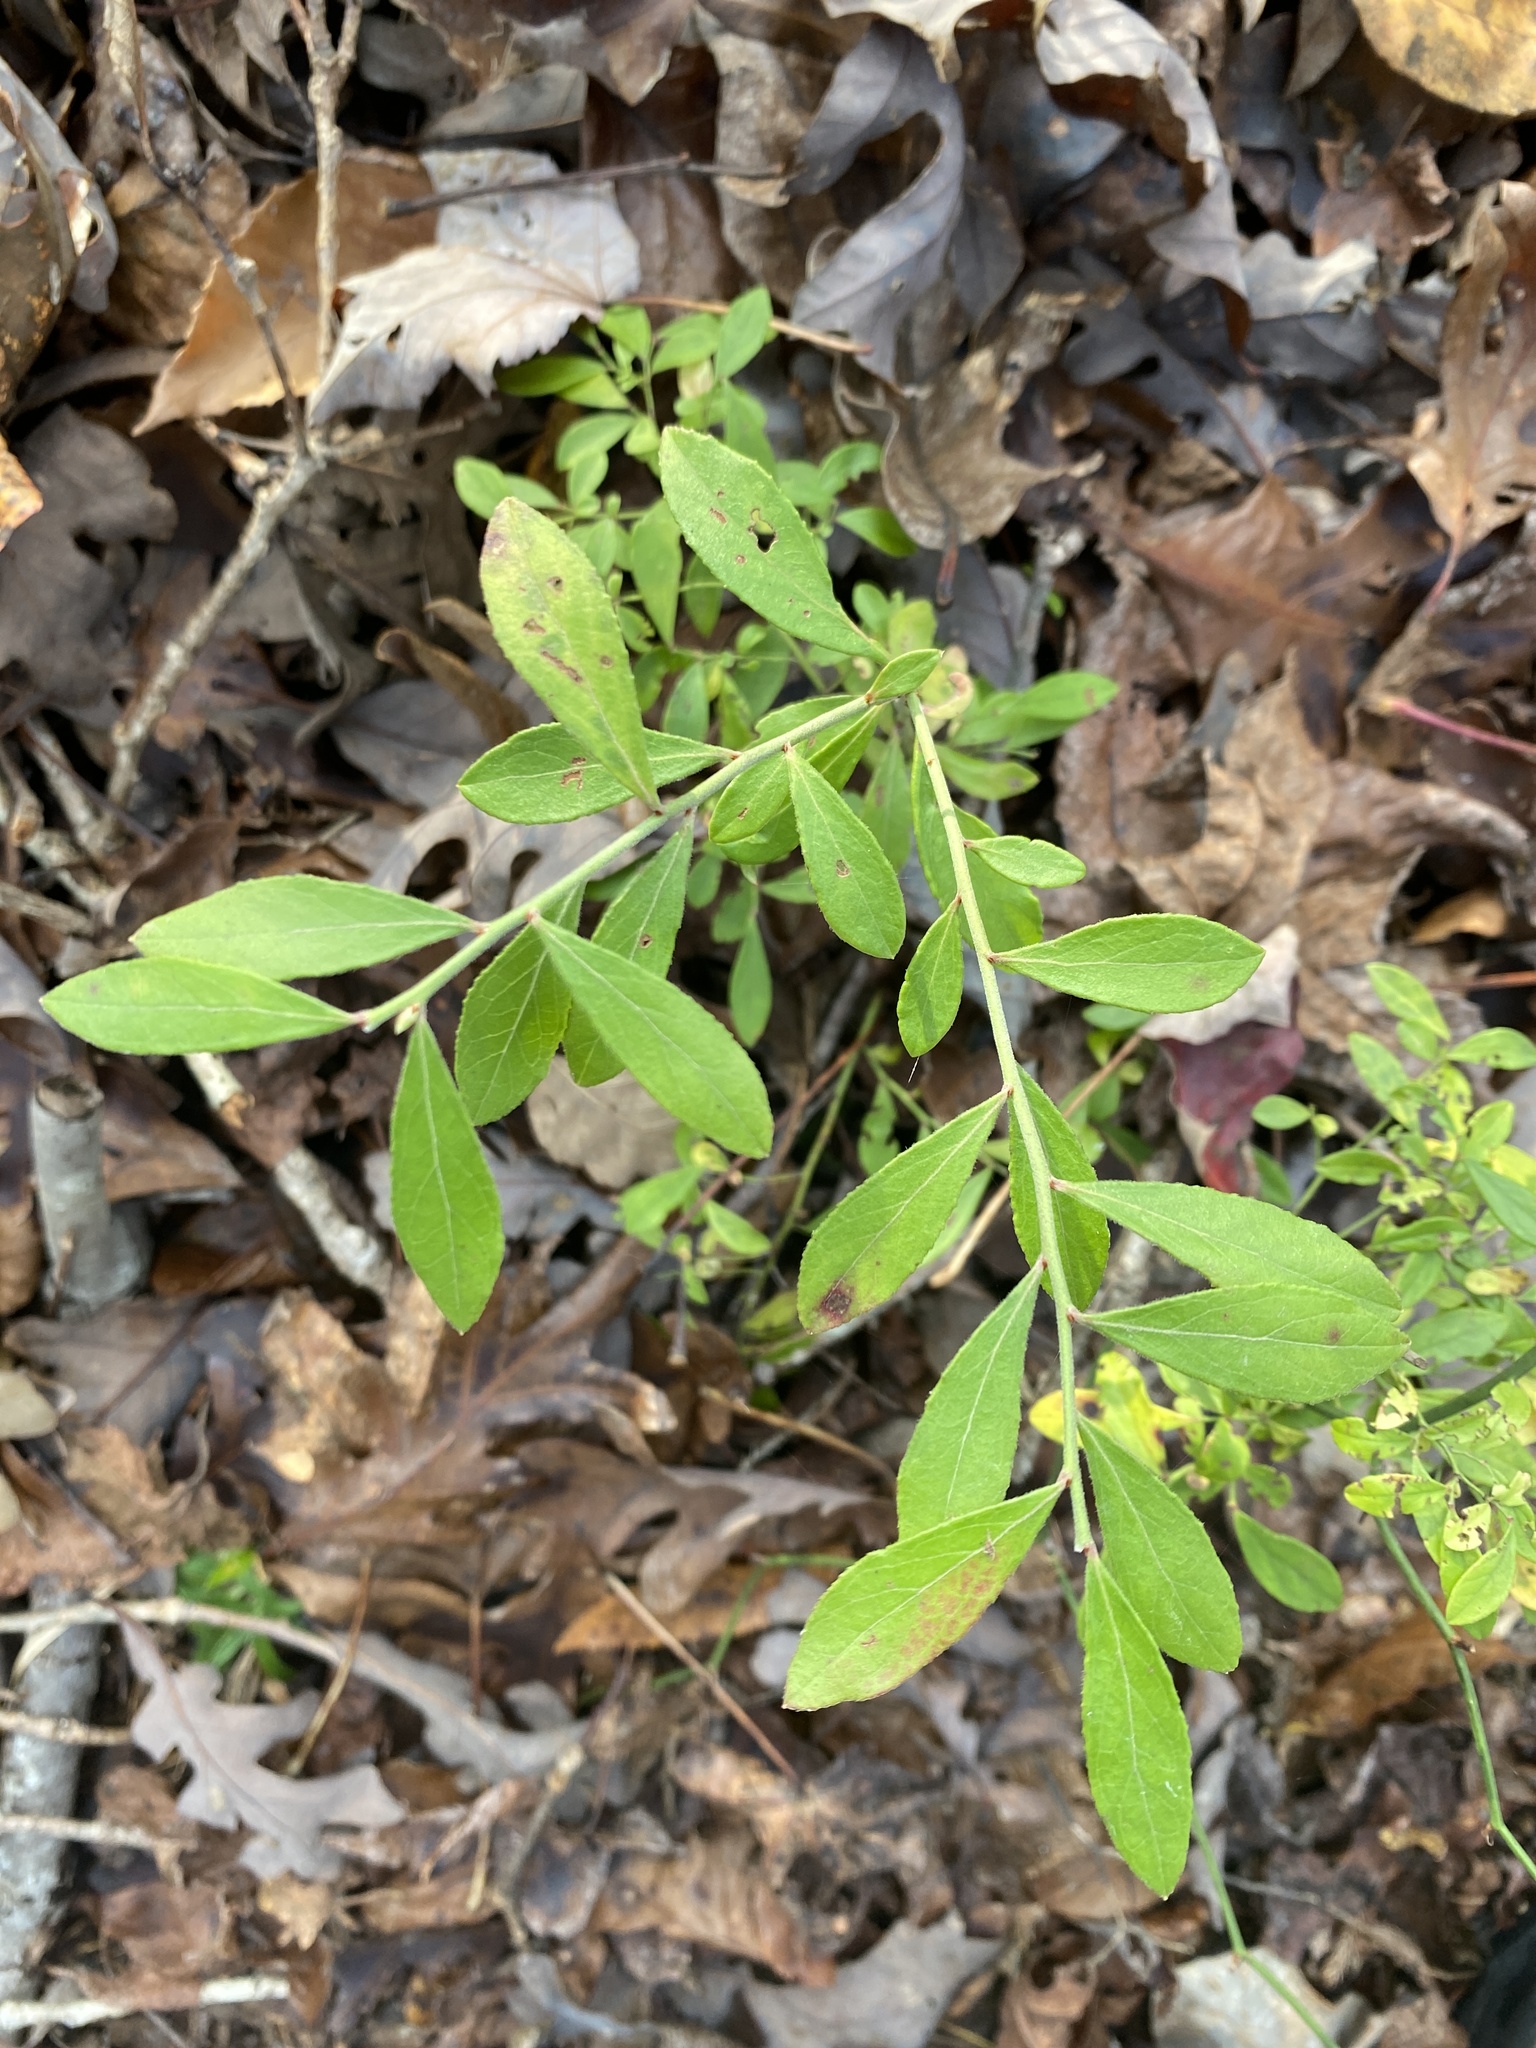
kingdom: Plantae
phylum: Tracheophyta
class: Magnoliopsida
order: Ericales
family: Ericaceae
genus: Vaccinium
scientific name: Vaccinium tenellum
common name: Southern blueberry
